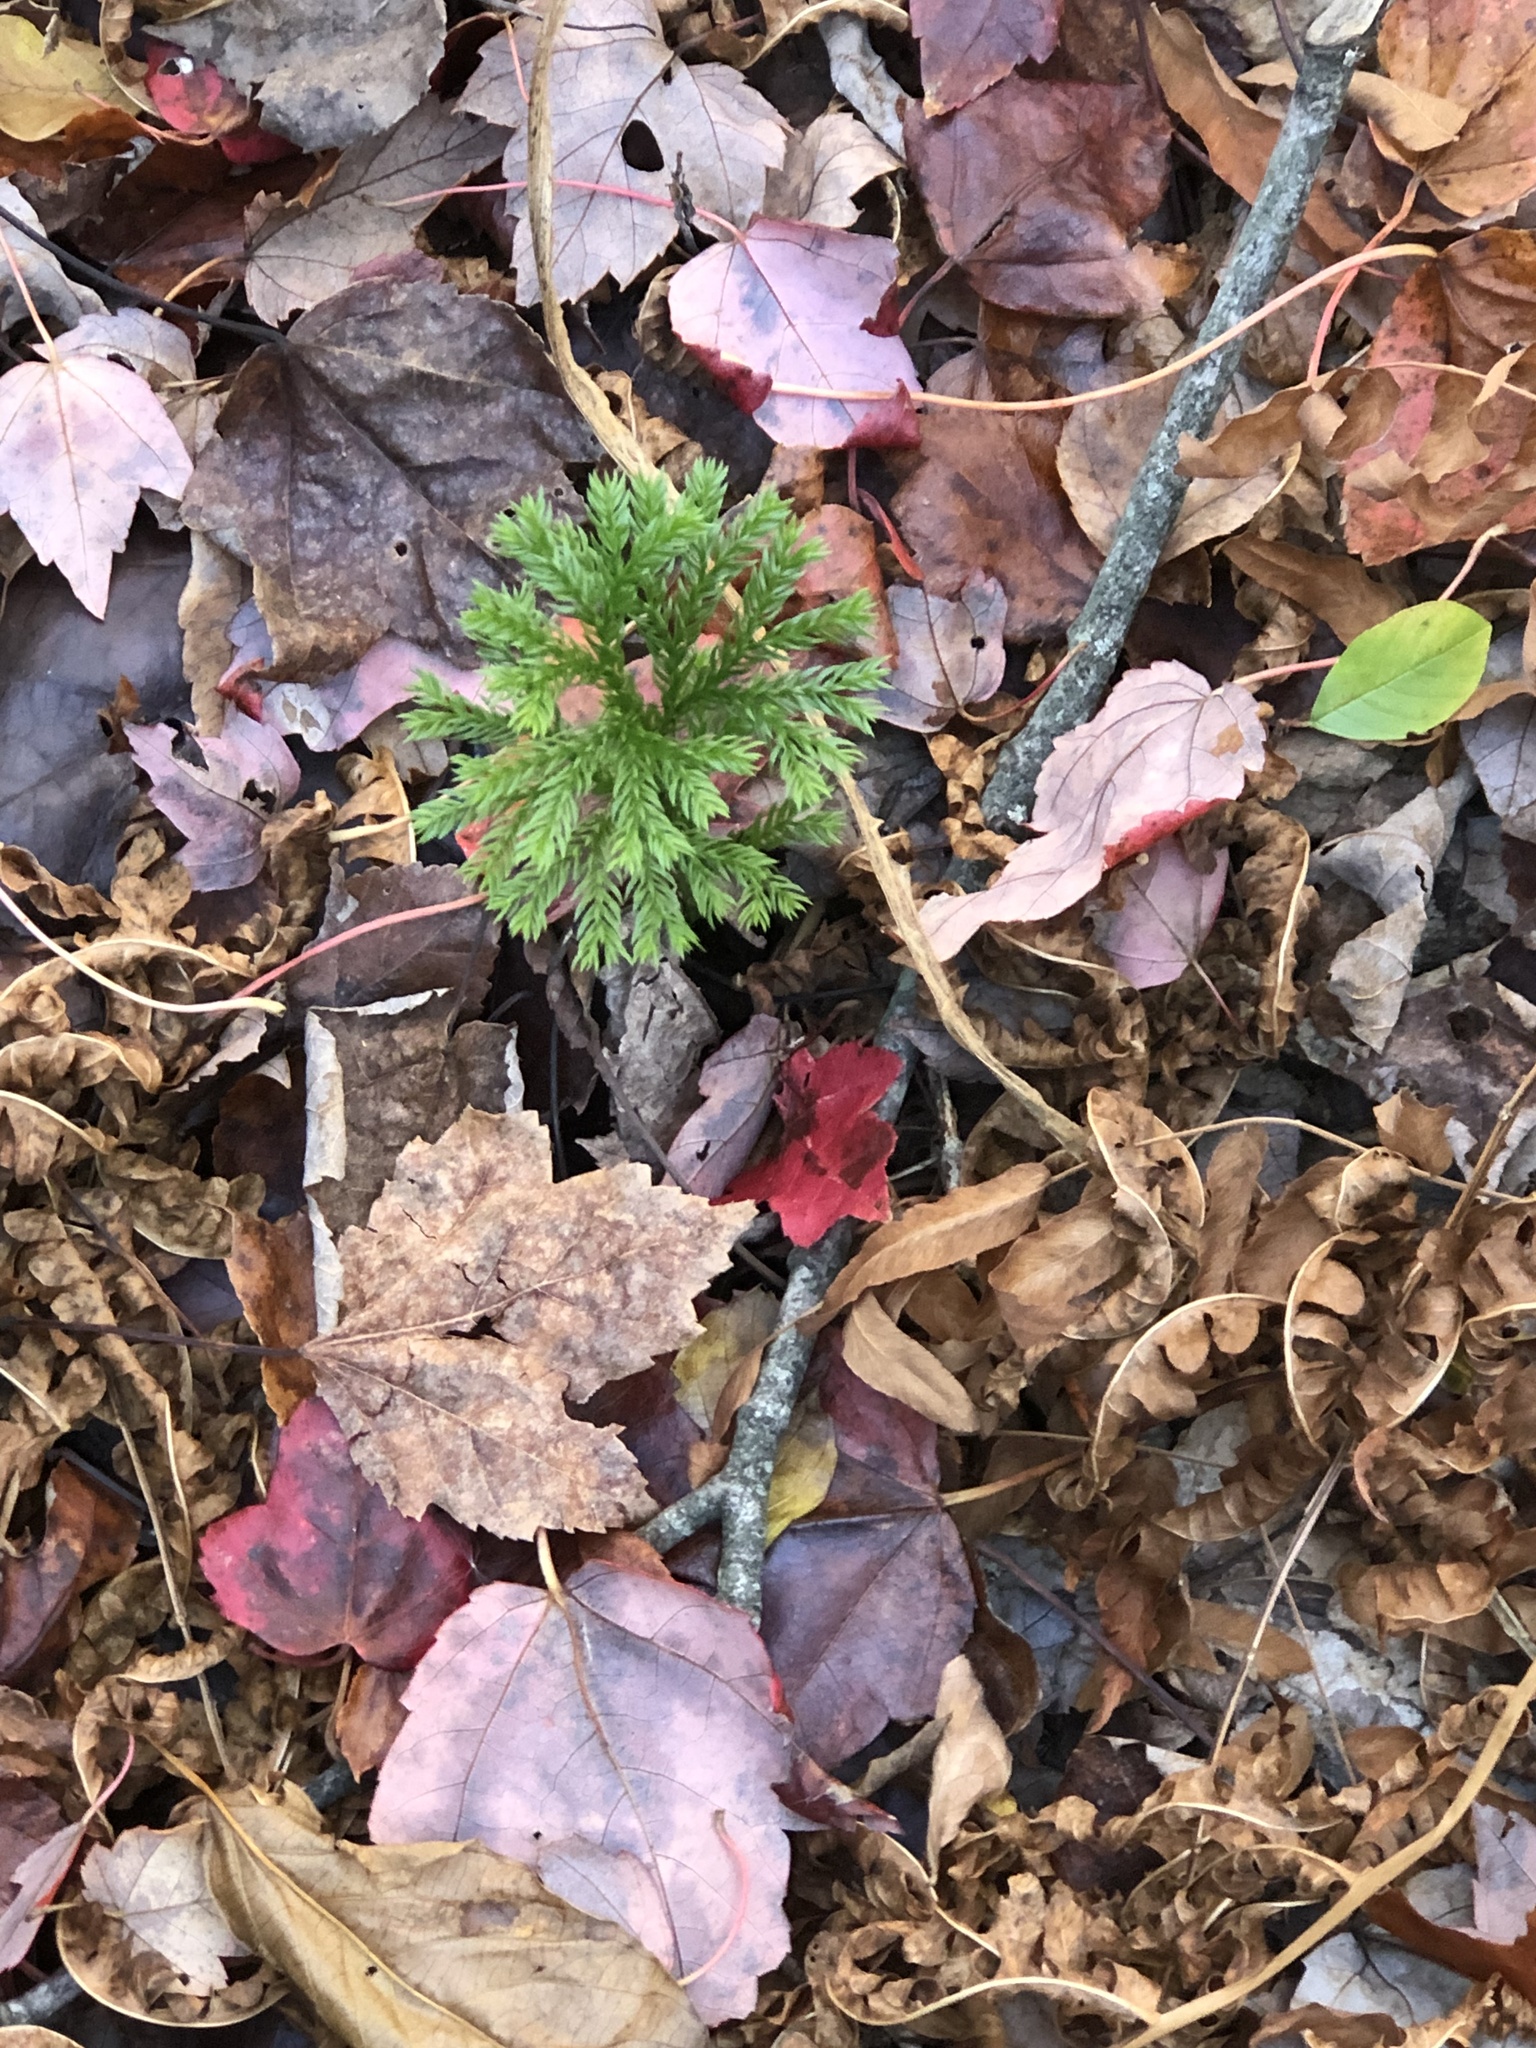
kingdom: Plantae
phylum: Tracheophyta
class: Lycopodiopsida
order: Lycopodiales
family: Lycopodiaceae
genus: Dendrolycopodium
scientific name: Dendrolycopodium obscurum
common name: Common ground-pine
